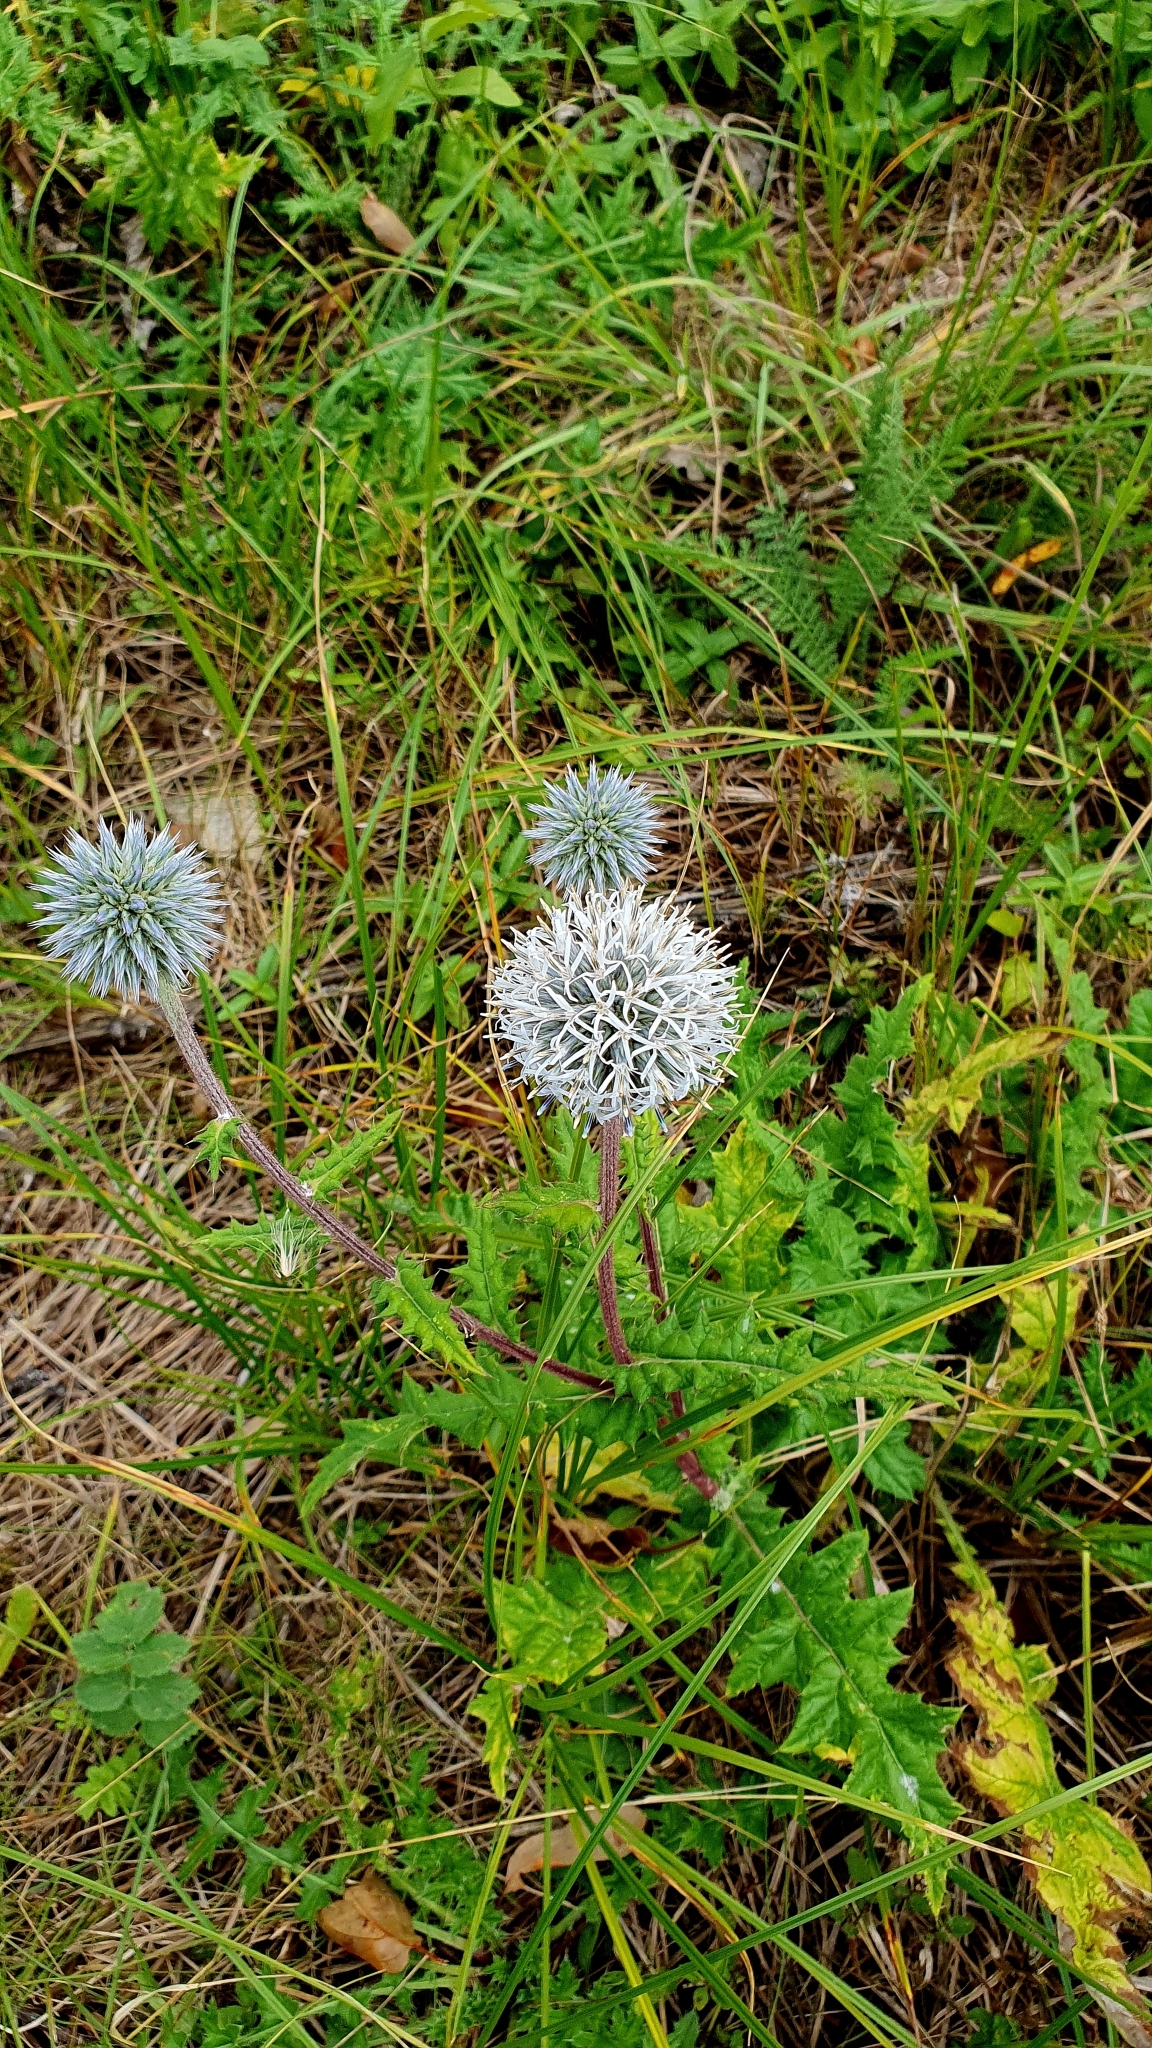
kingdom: Plantae
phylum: Tracheophyta
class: Magnoliopsida
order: Asterales
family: Asteraceae
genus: Echinops
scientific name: Echinops sphaerocephalus
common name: Glandular globe-thistle
